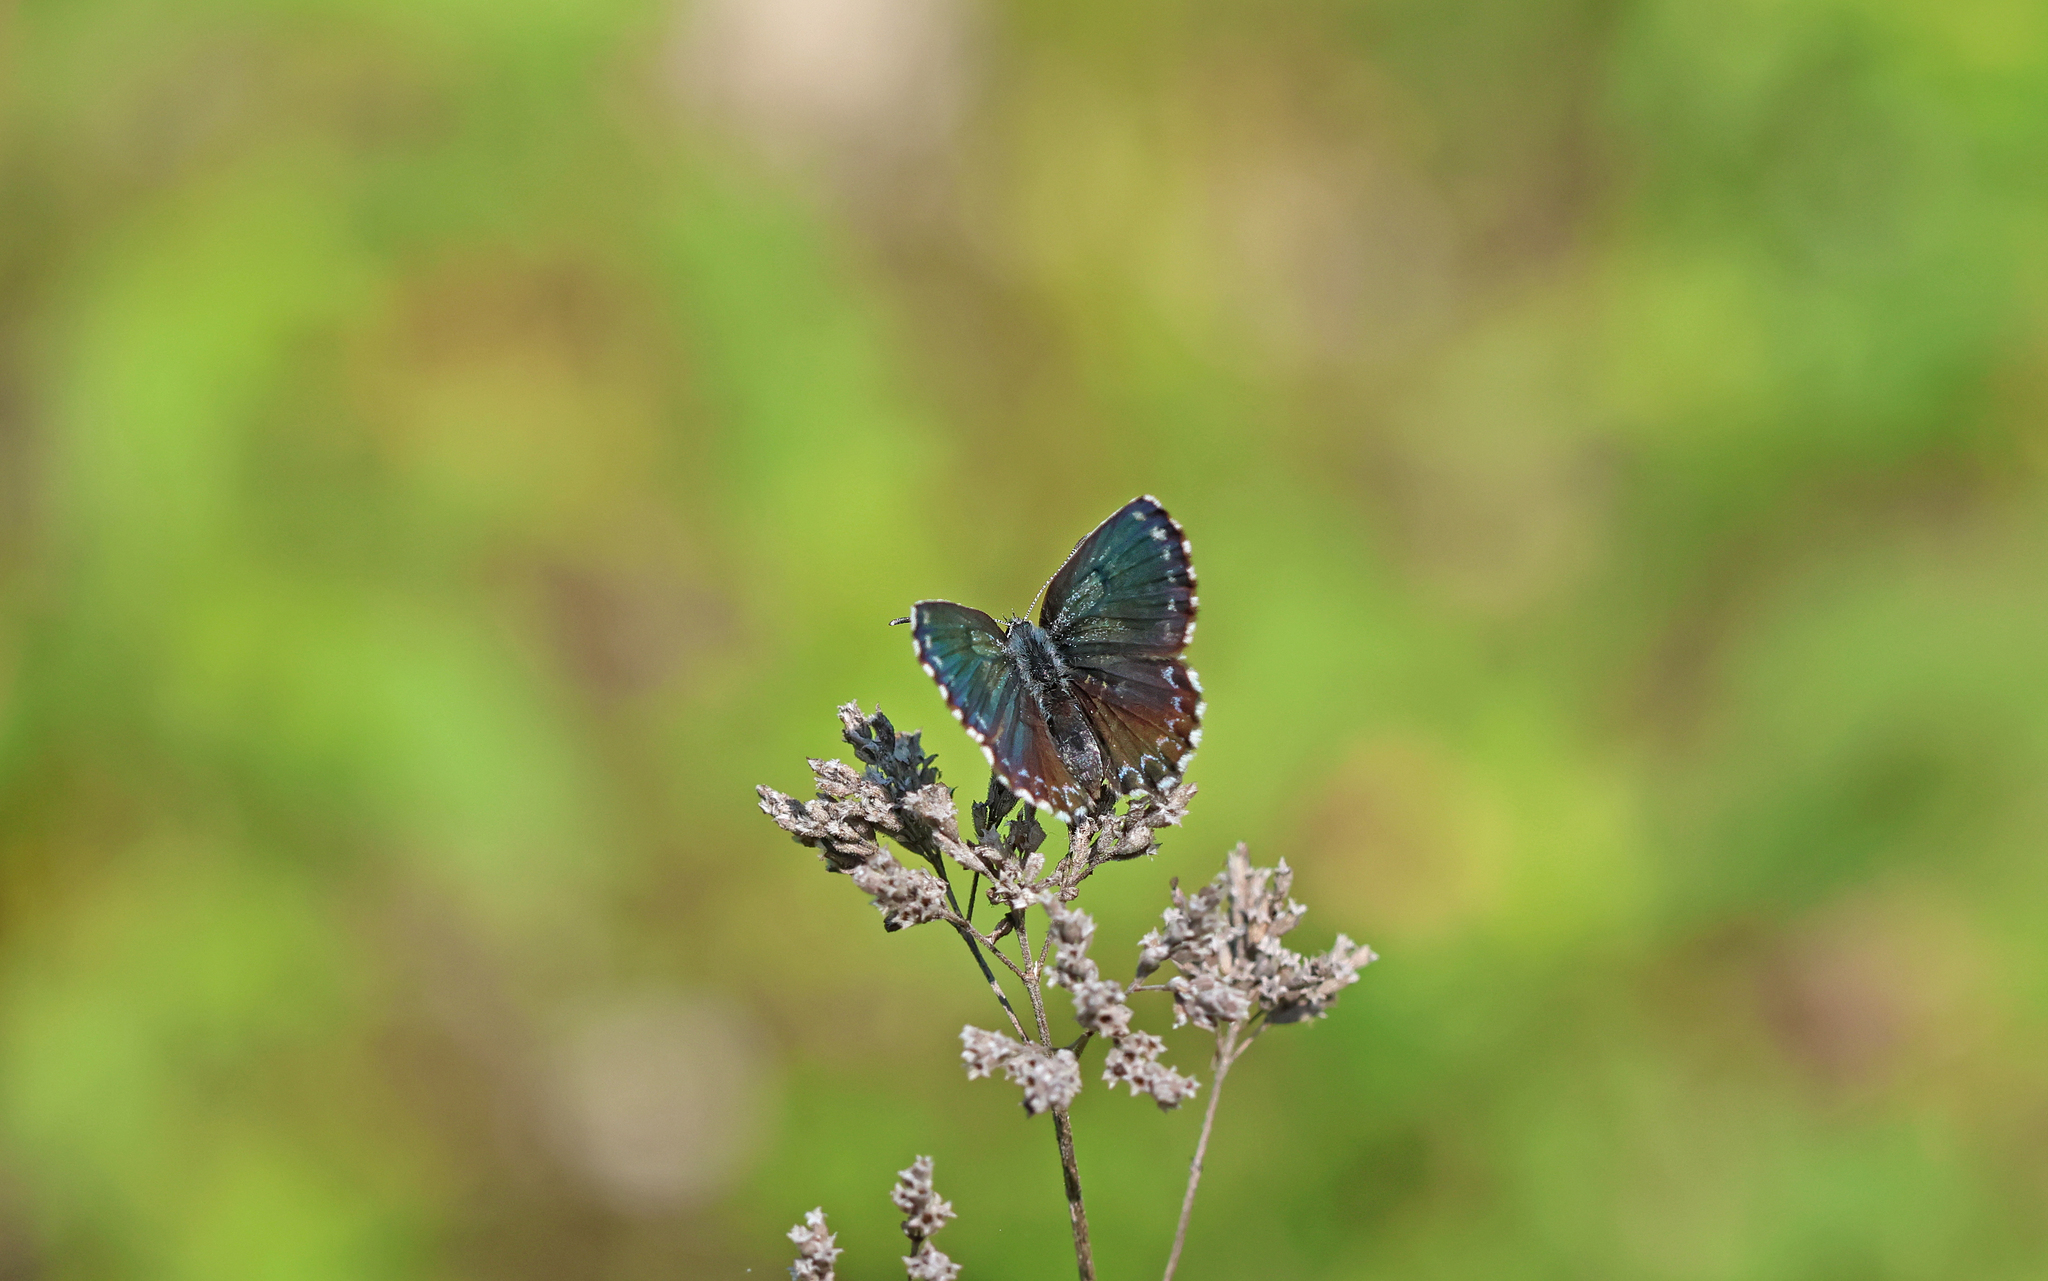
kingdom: Animalia
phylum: Arthropoda
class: Insecta
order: Lepidoptera
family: Lycaenidae
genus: Scolitantides
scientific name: Scolitantides orion
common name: Chequered blue
